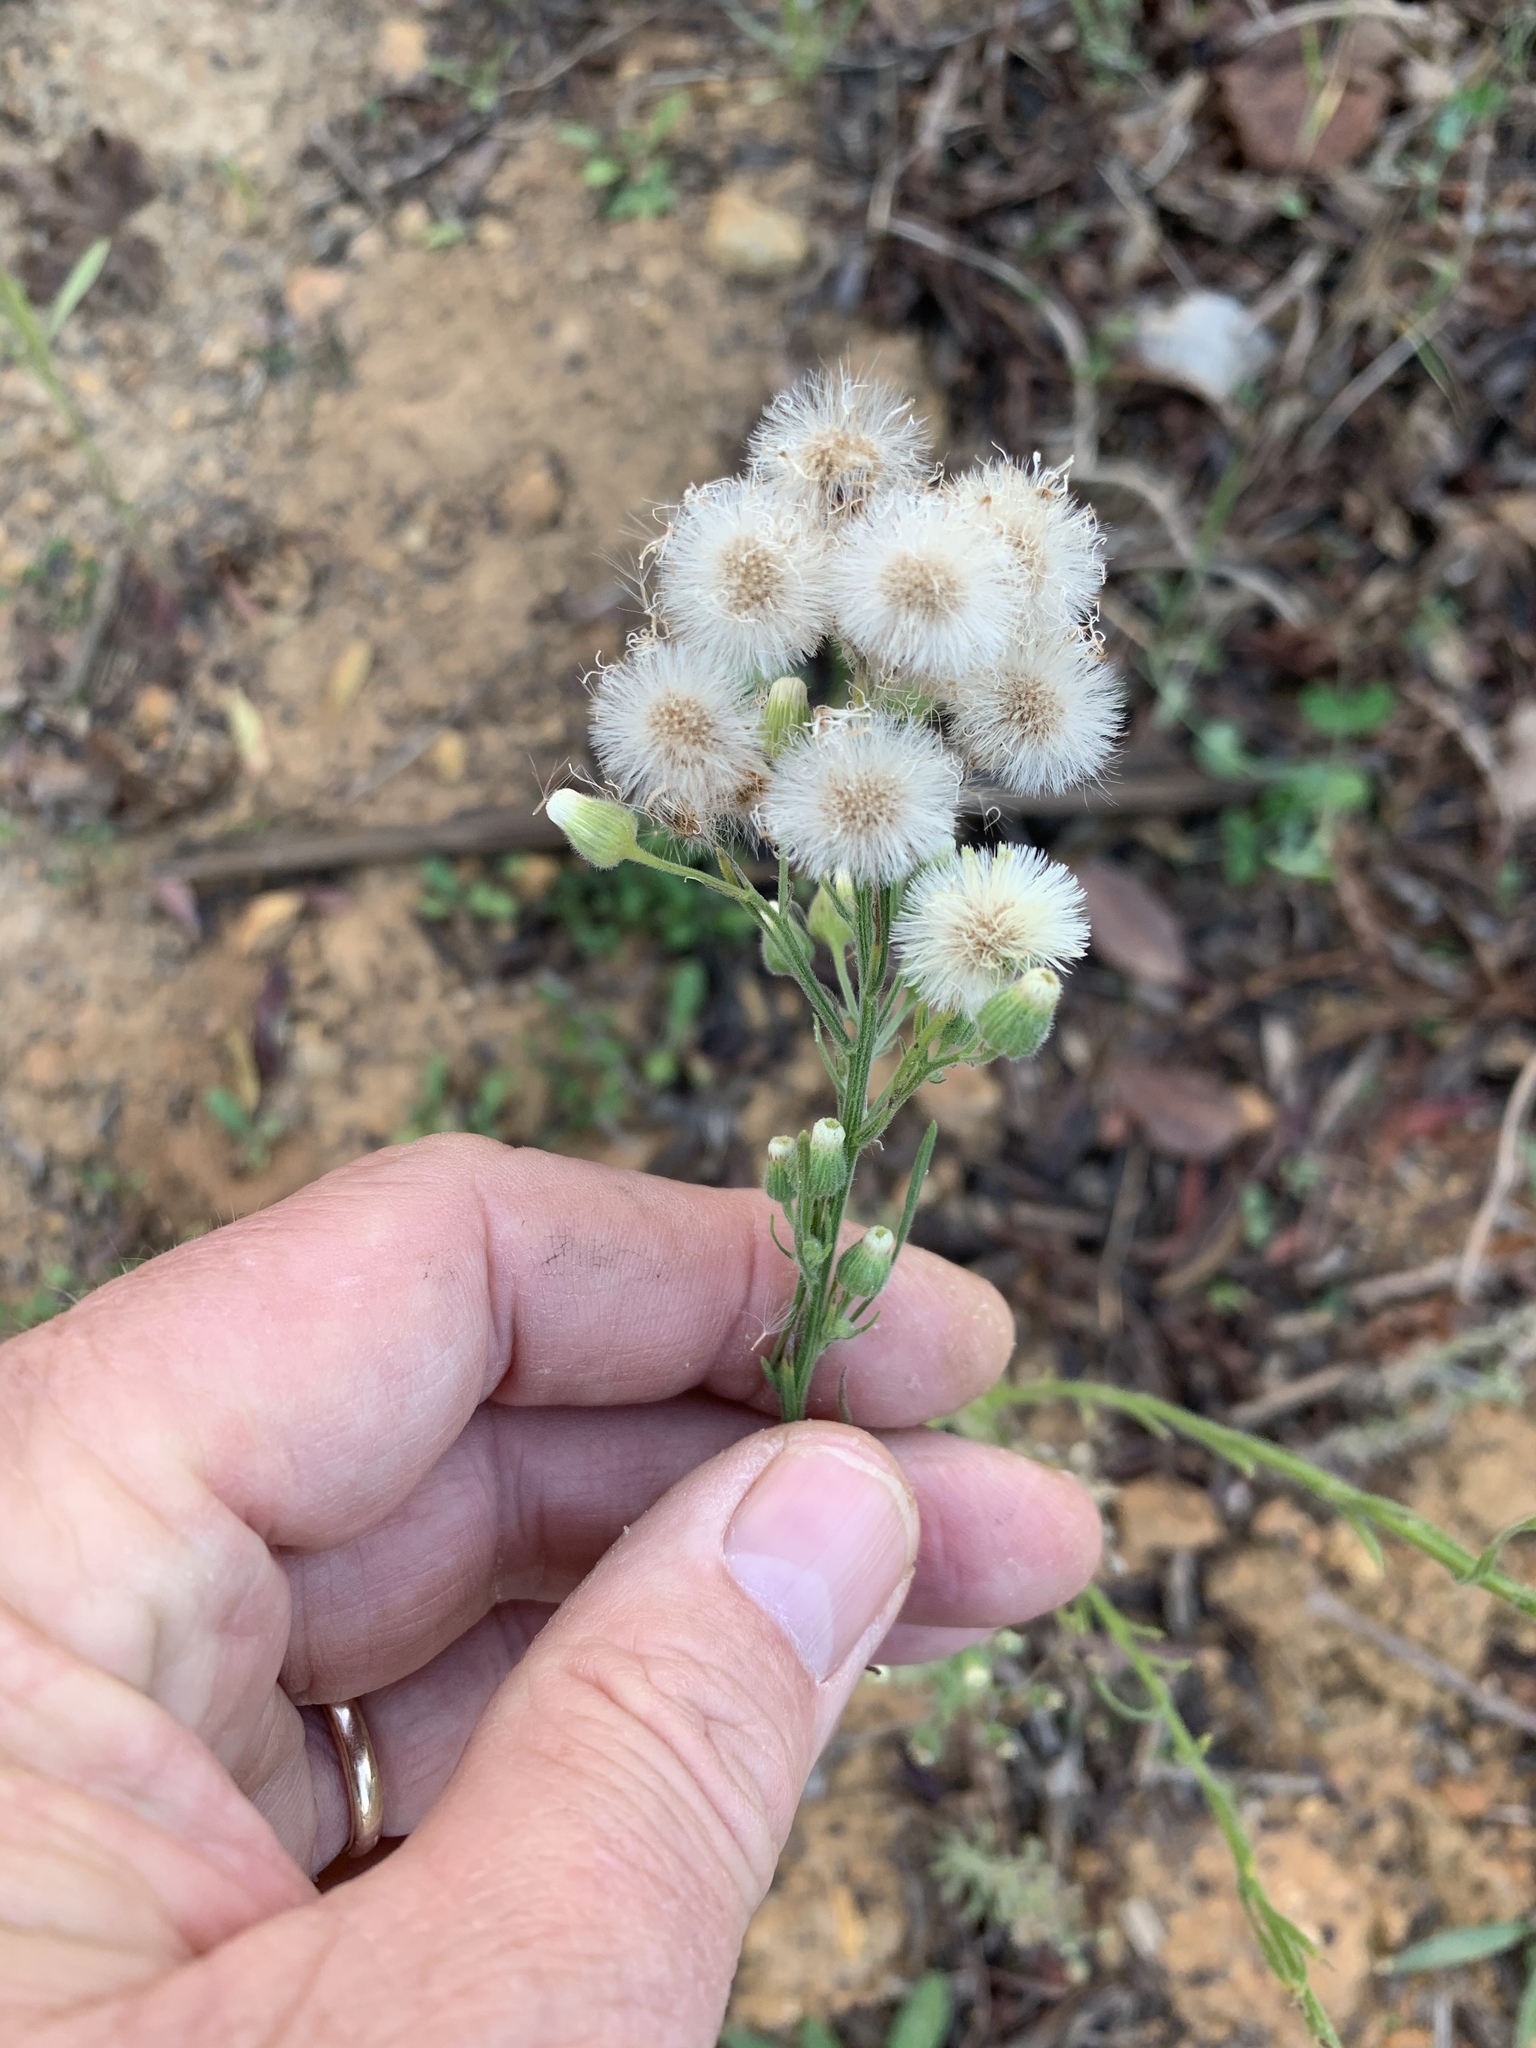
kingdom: Plantae
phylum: Tracheophyta
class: Magnoliopsida
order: Asterales
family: Asteraceae
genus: Erigeron
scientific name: Erigeron bonariensis
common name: Argentine fleabane
